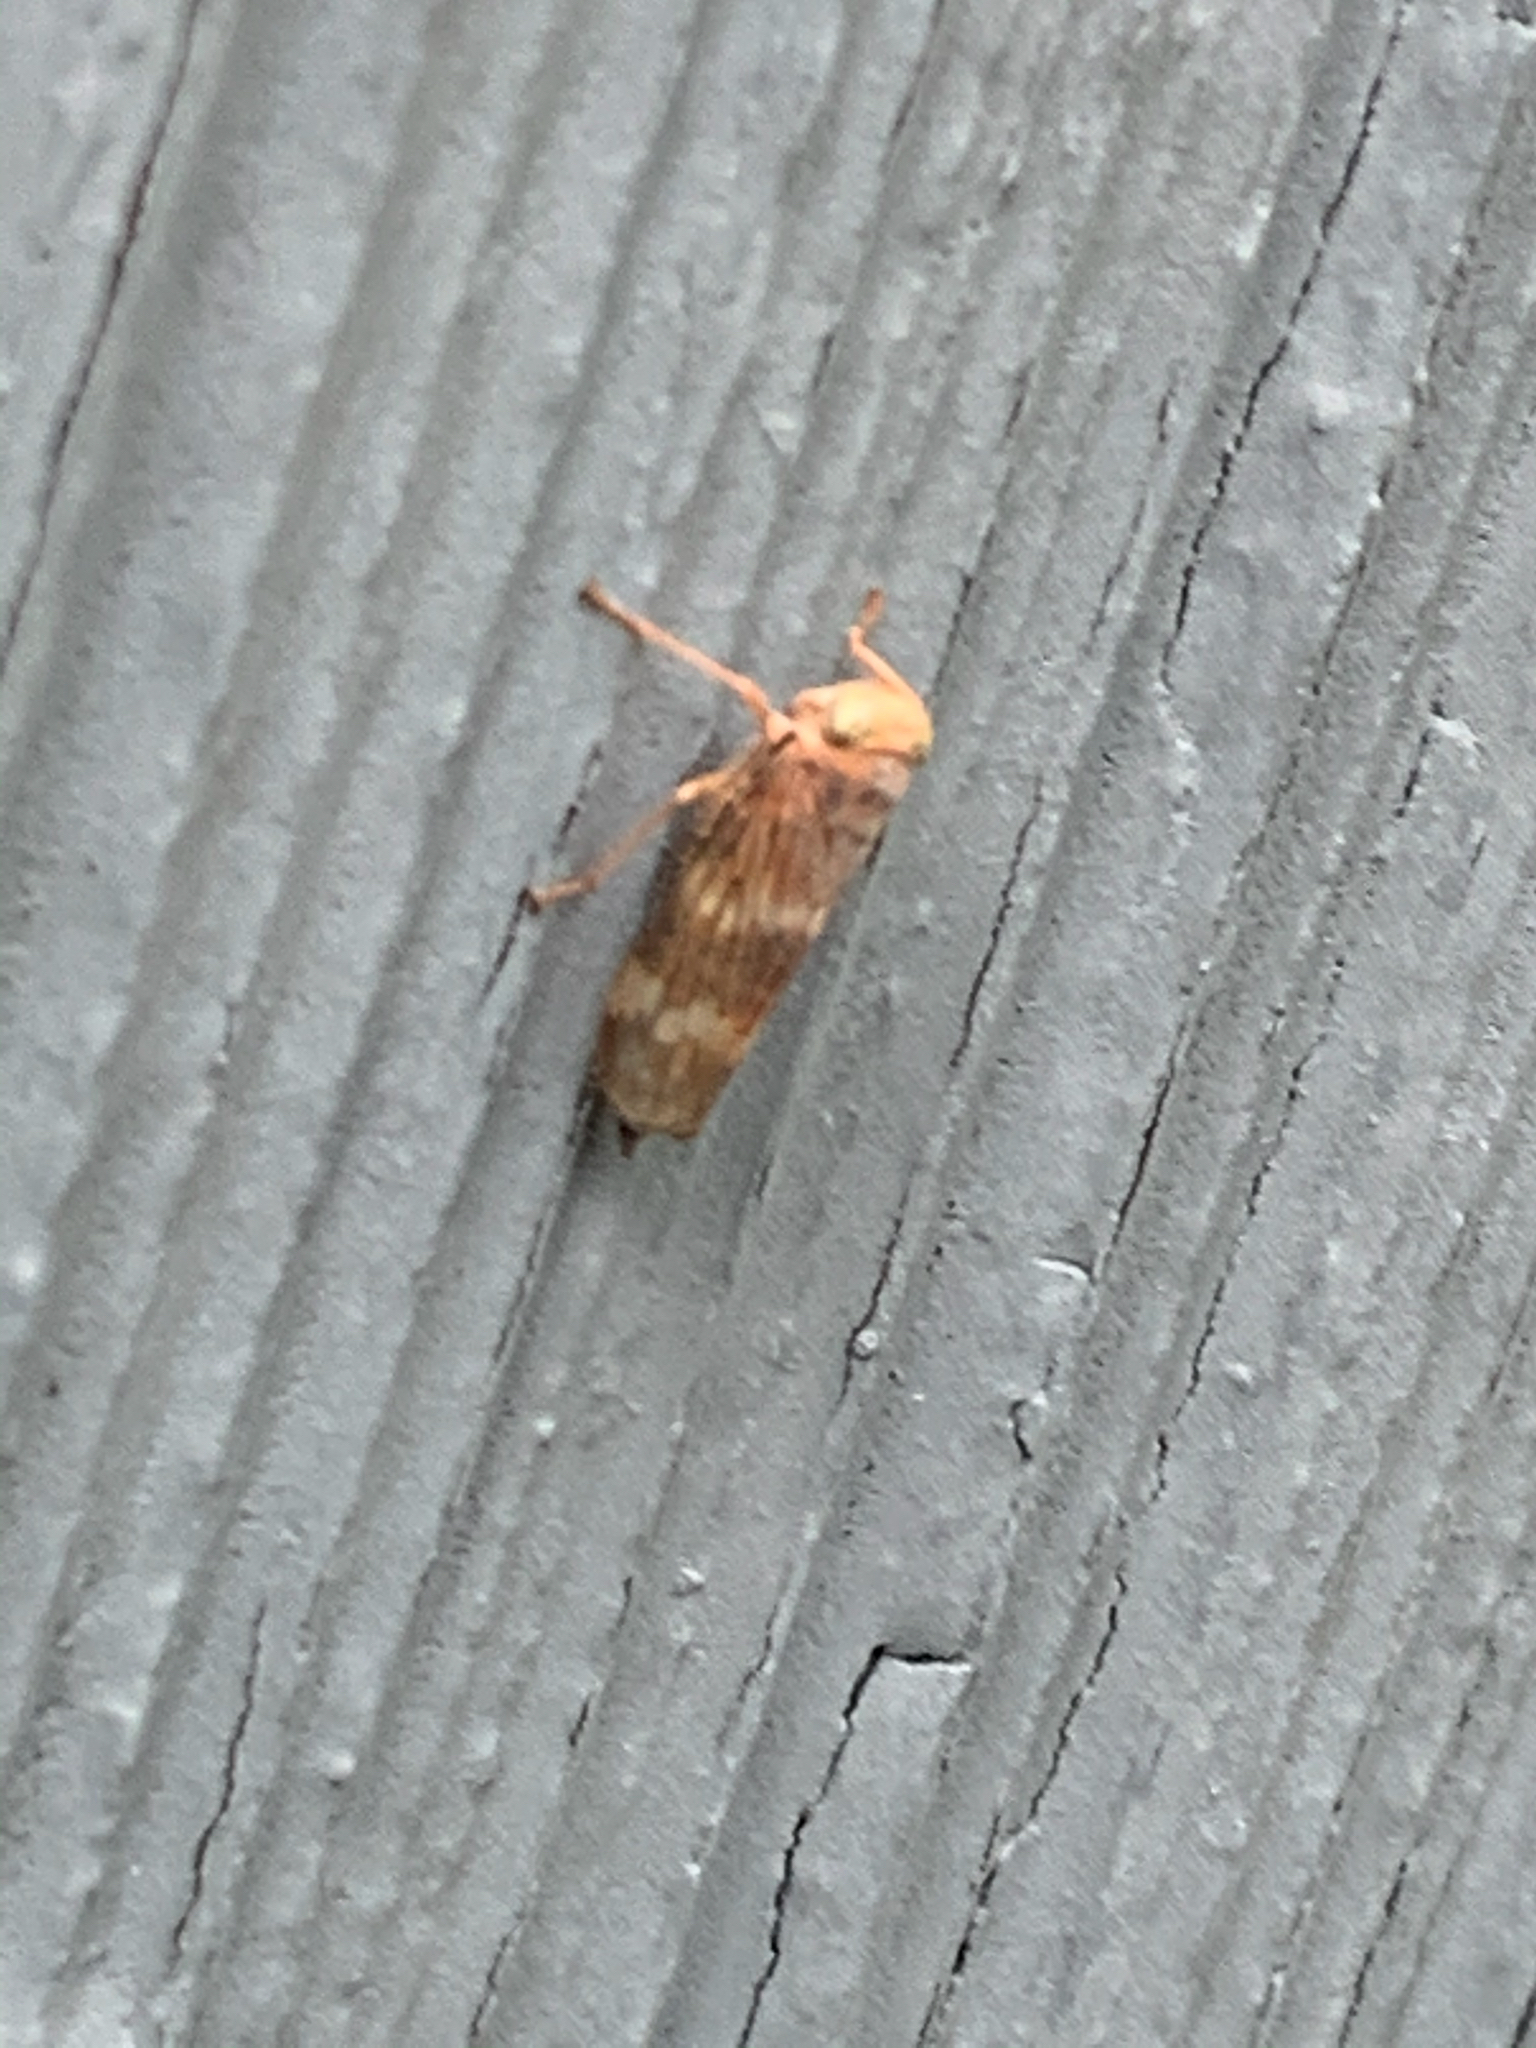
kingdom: Animalia
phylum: Arthropoda
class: Insecta
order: Hemiptera
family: Cicadellidae
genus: Jikradia
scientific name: Jikradia olitoria
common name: Coppery leafhopper
